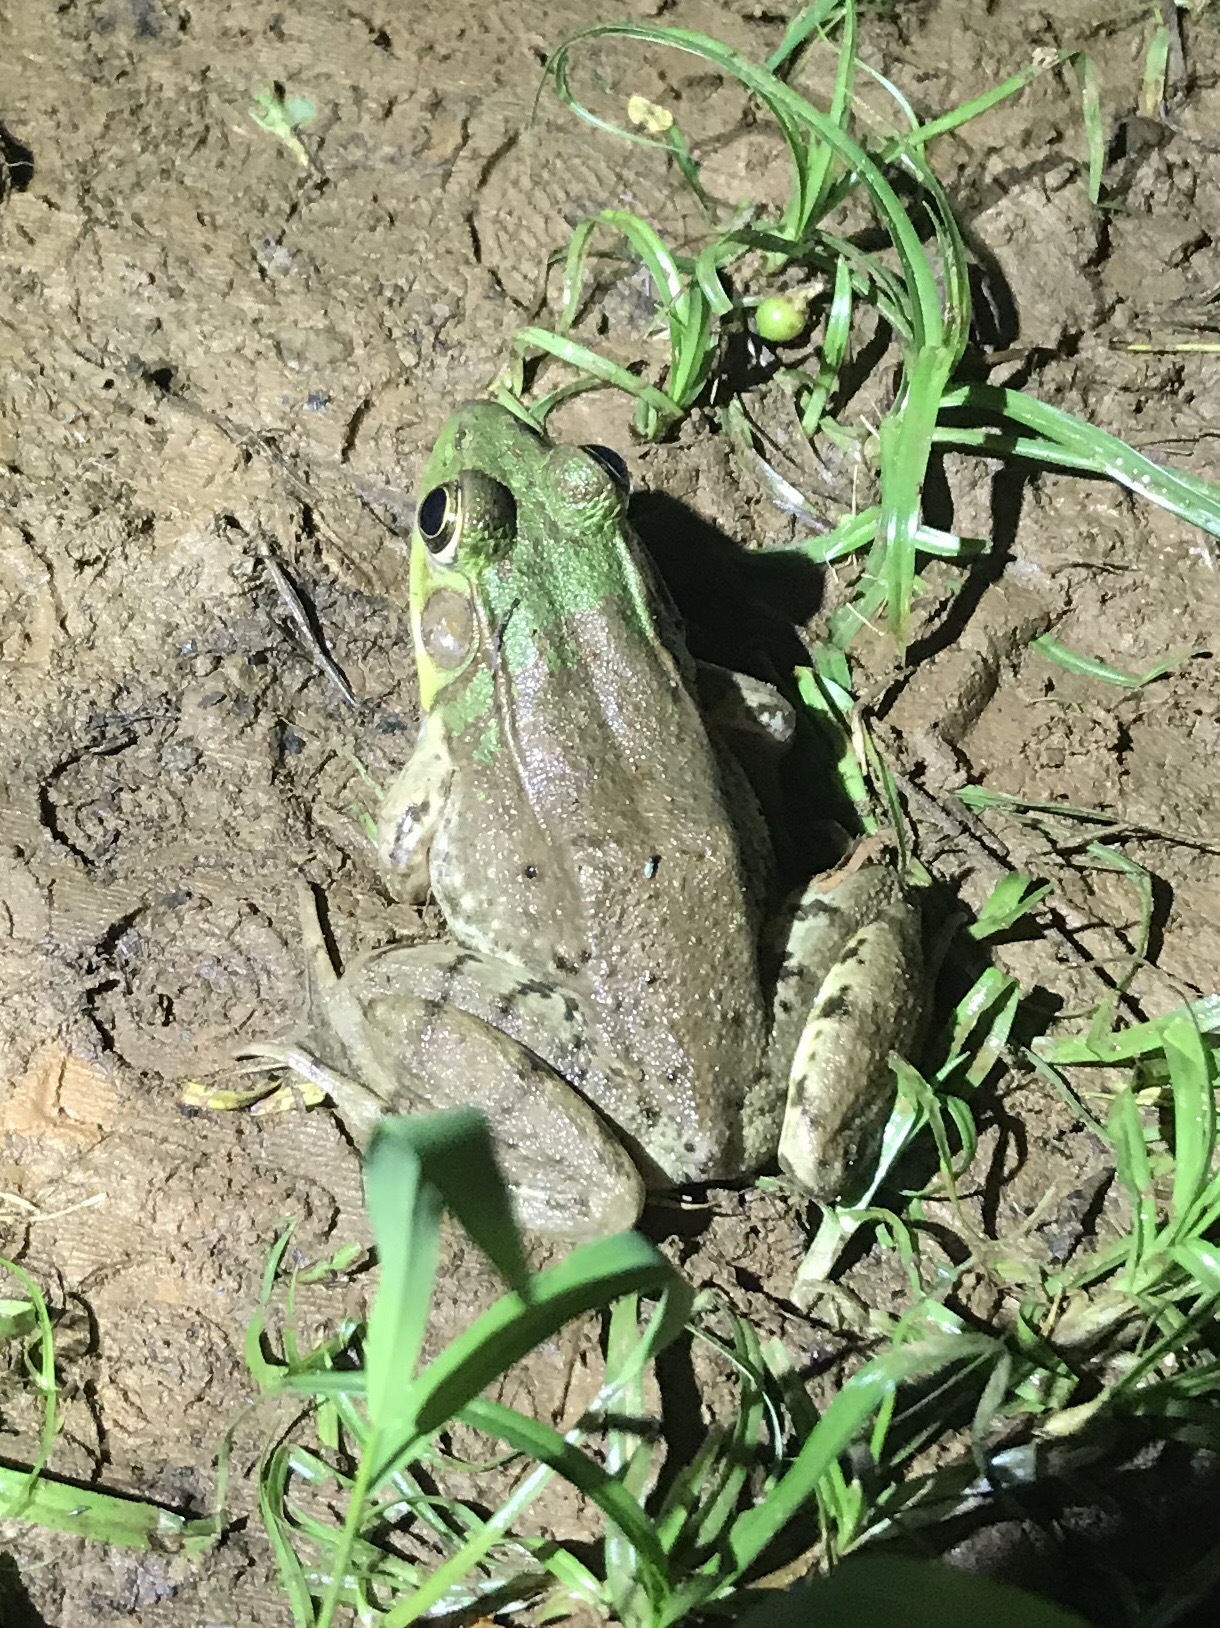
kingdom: Animalia
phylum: Chordata
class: Amphibia
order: Anura
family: Ranidae
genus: Lithobates
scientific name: Lithobates clamitans
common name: Green frog
